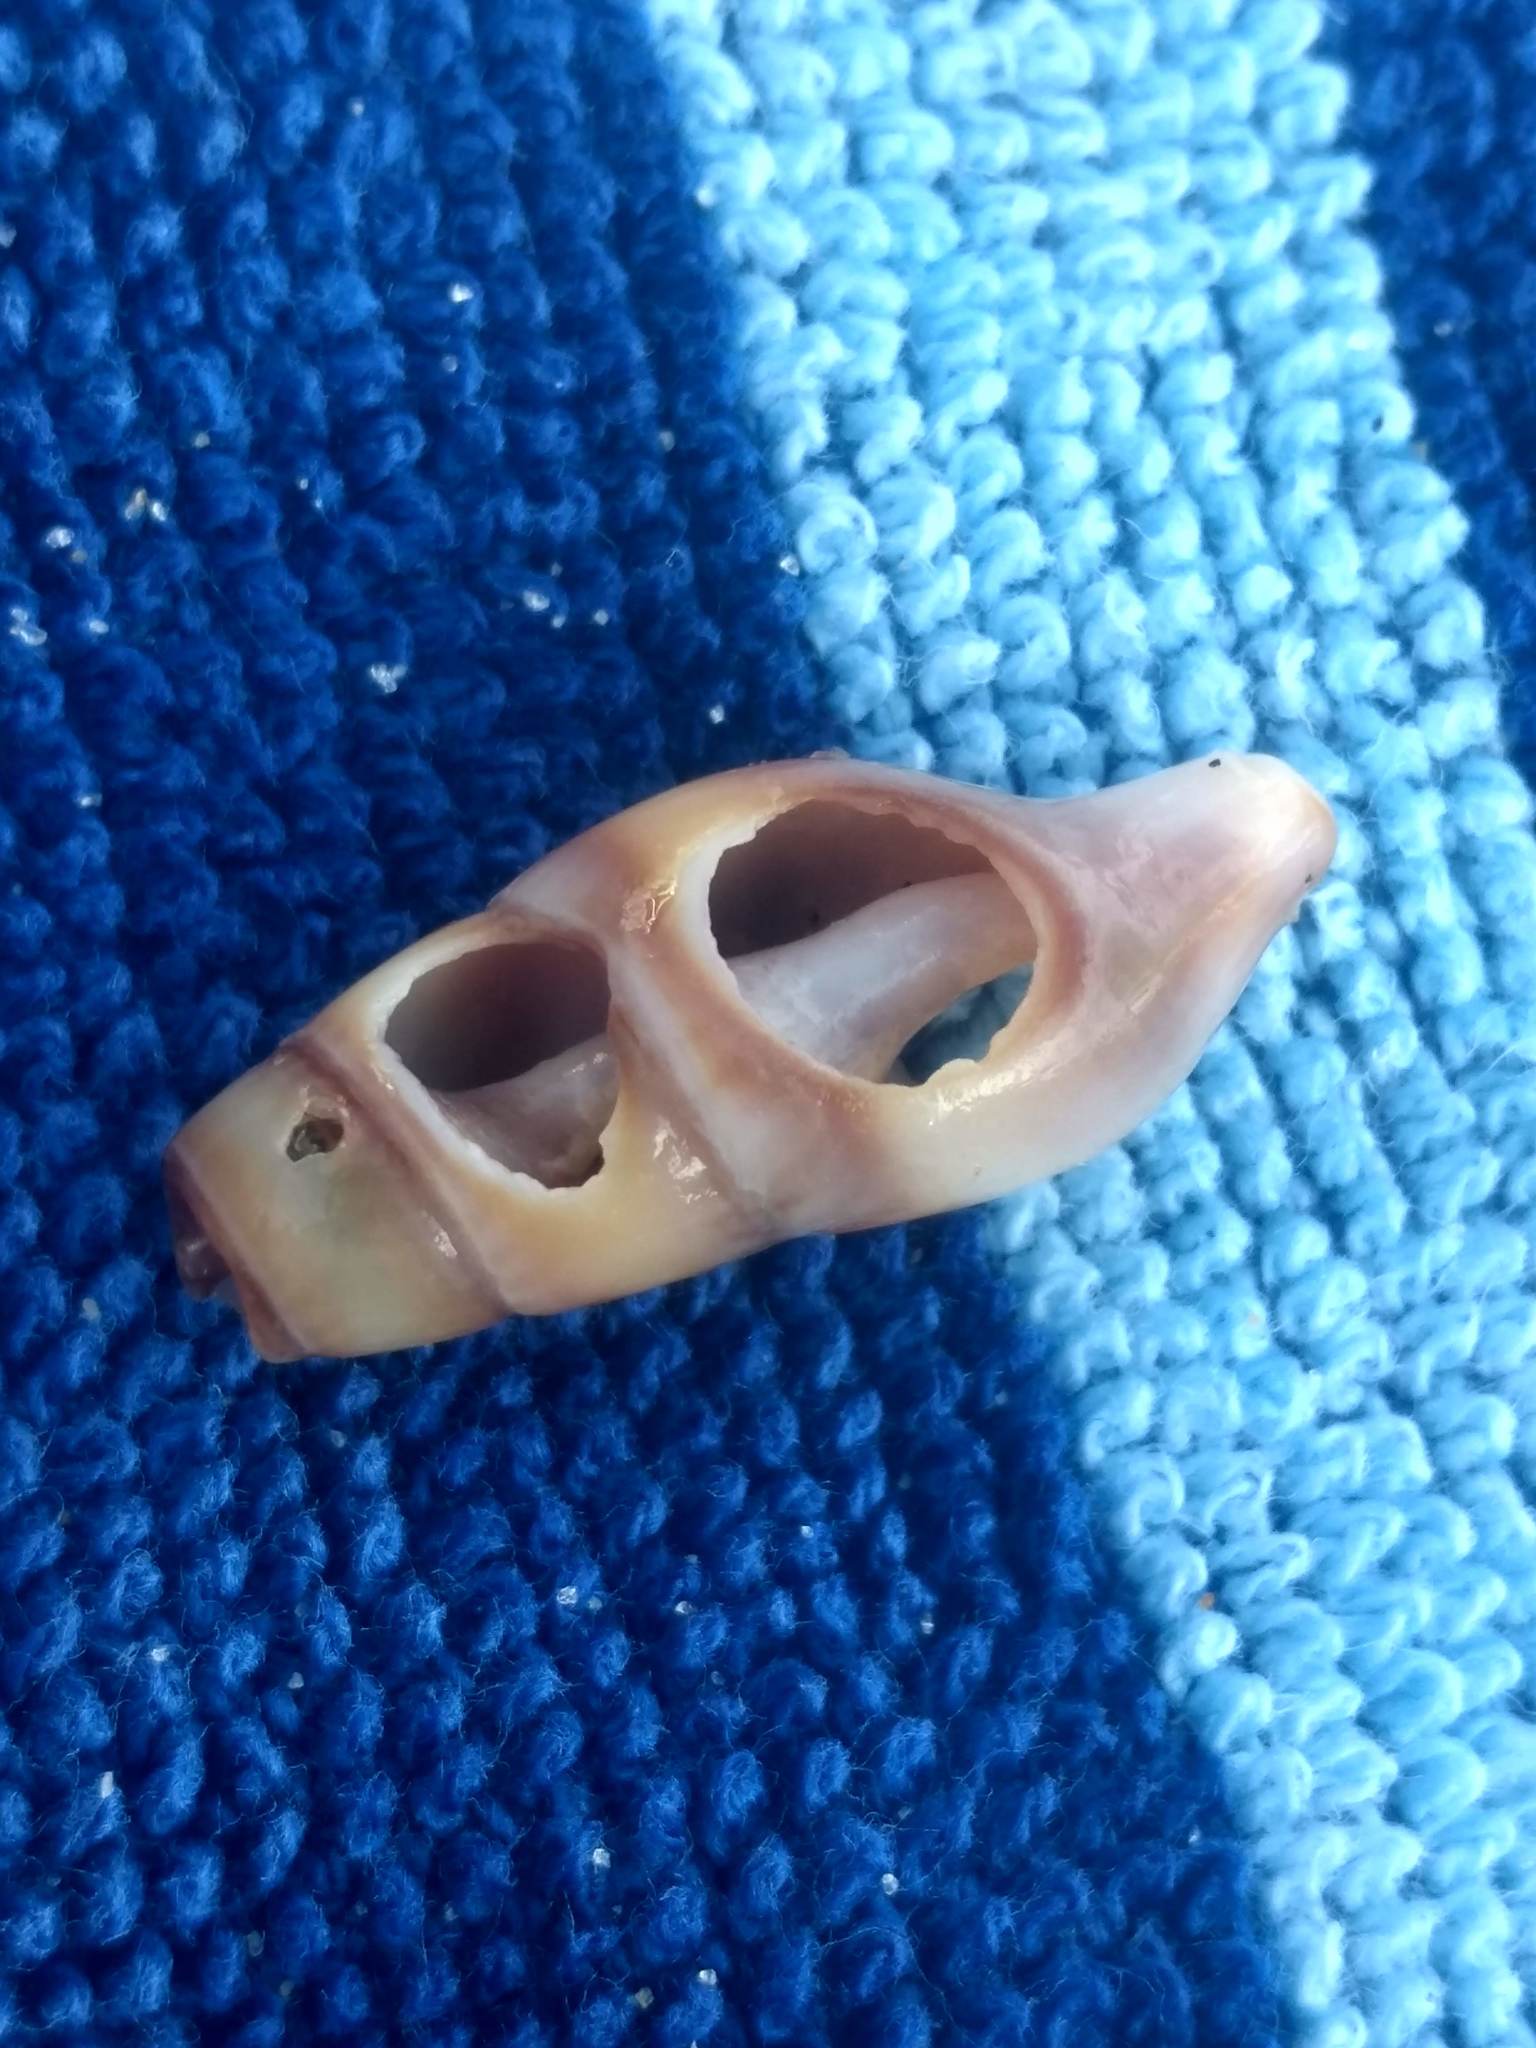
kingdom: Animalia
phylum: Mollusca
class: Gastropoda
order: Neogastropoda
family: Borsoniidae
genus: Ophiodermella
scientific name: Ophiodermella inermis
